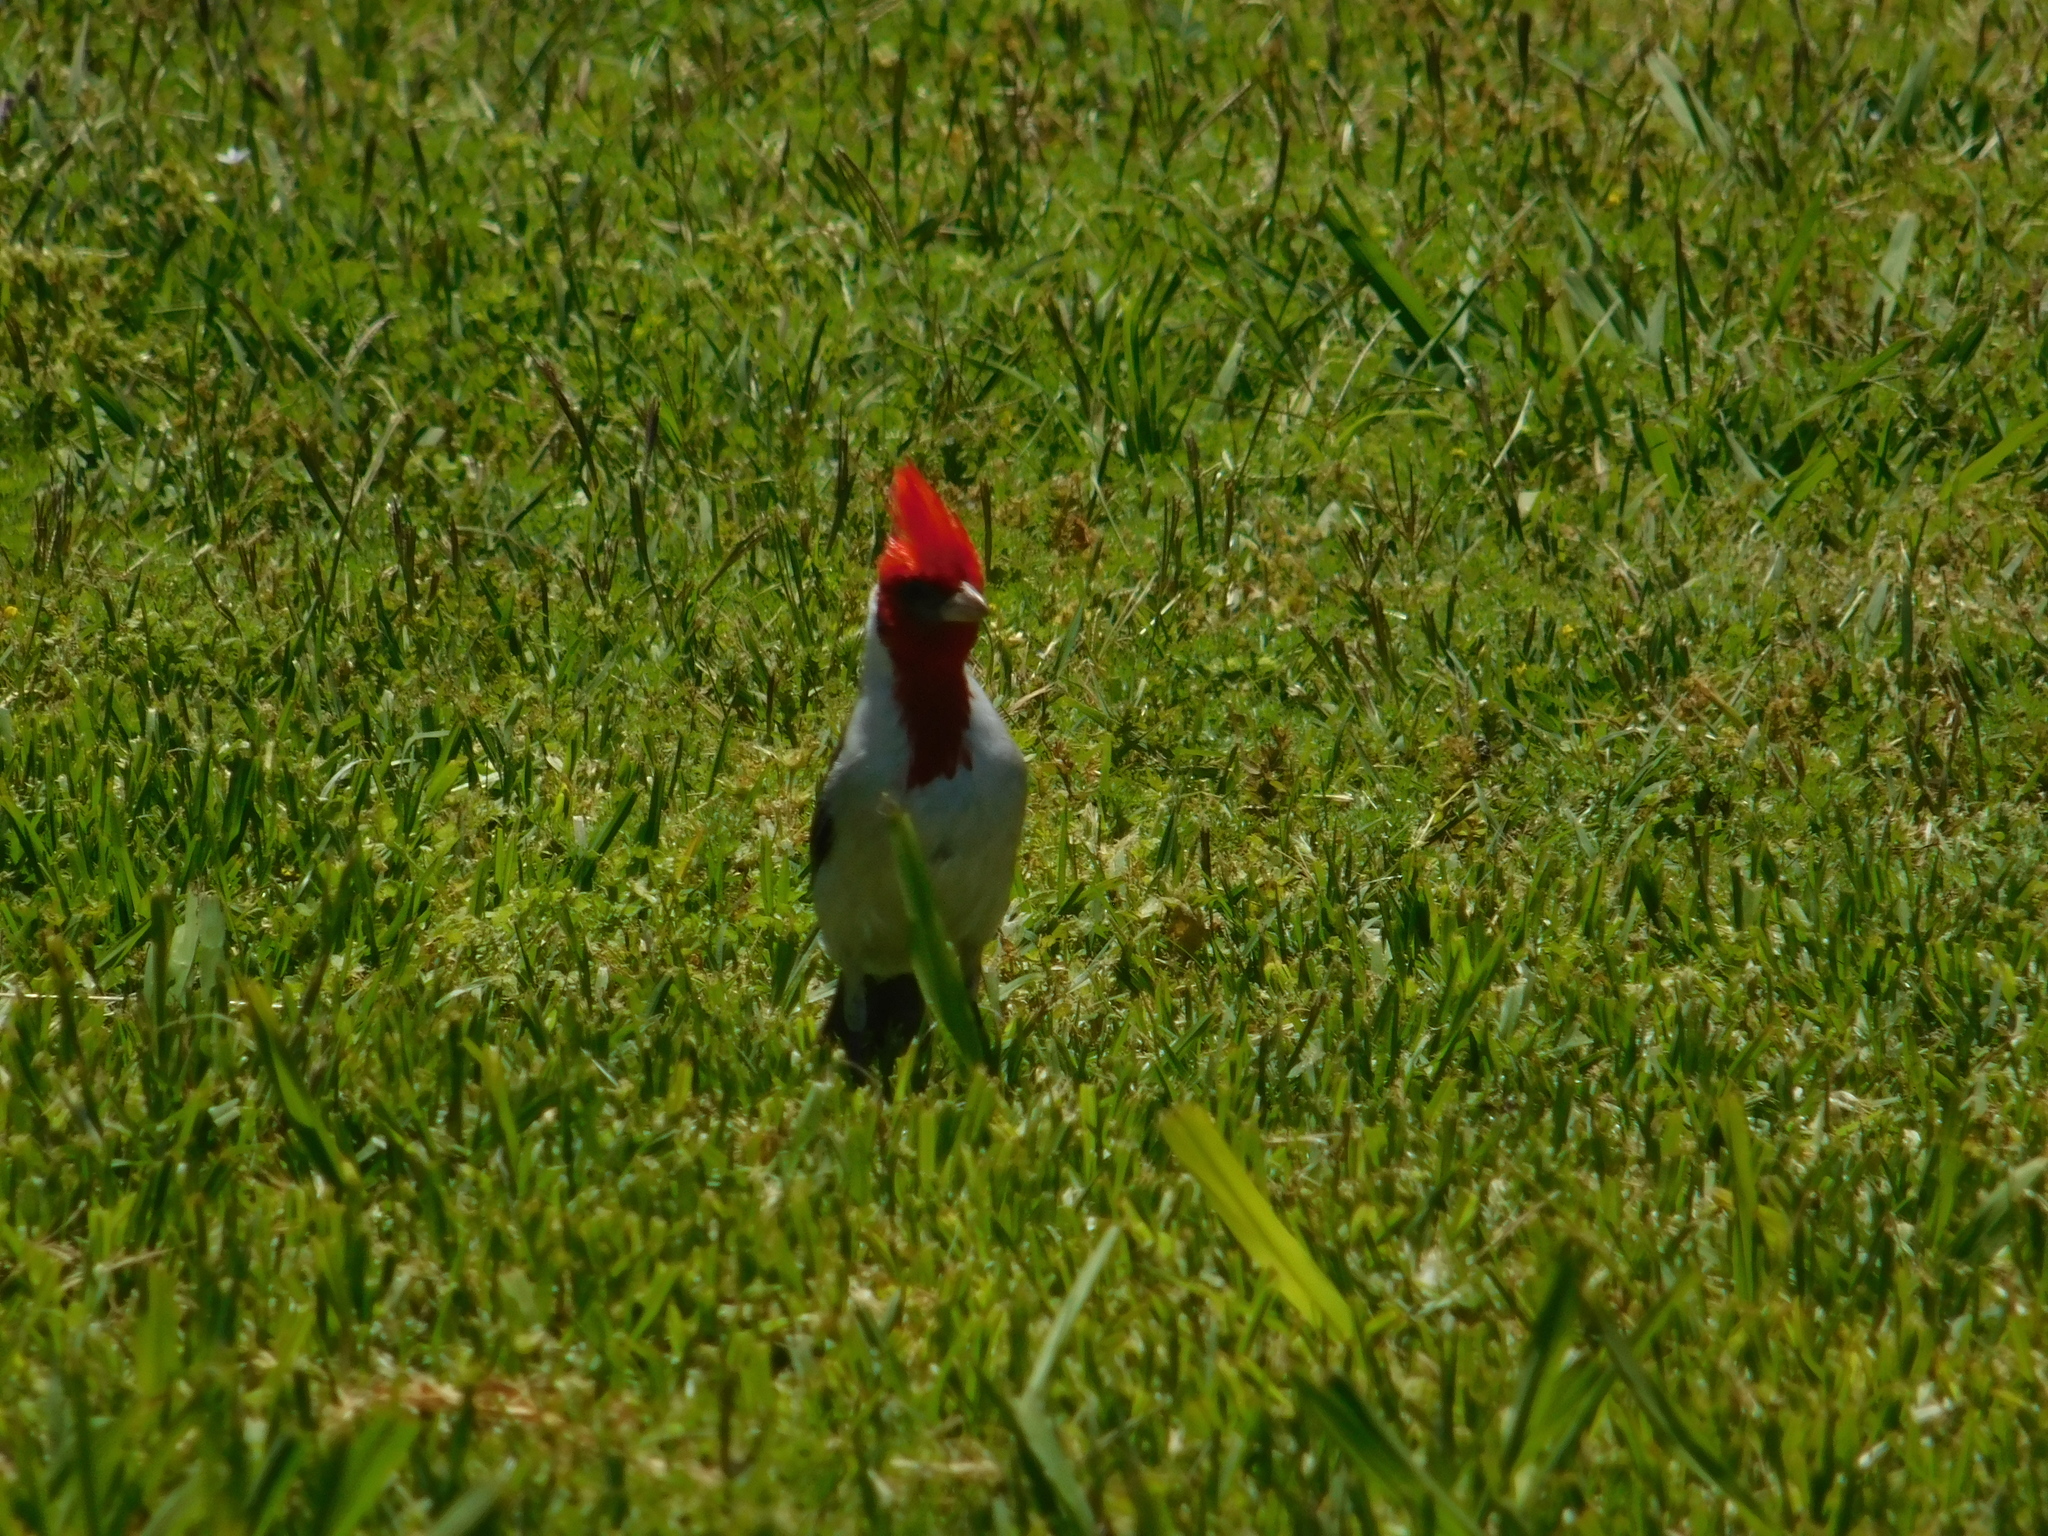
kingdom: Animalia
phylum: Chordata
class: Aves
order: Passeriformes
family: Thraupidae
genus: Paroaria
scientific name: Paroaria coronata
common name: Red-crested cardinal
